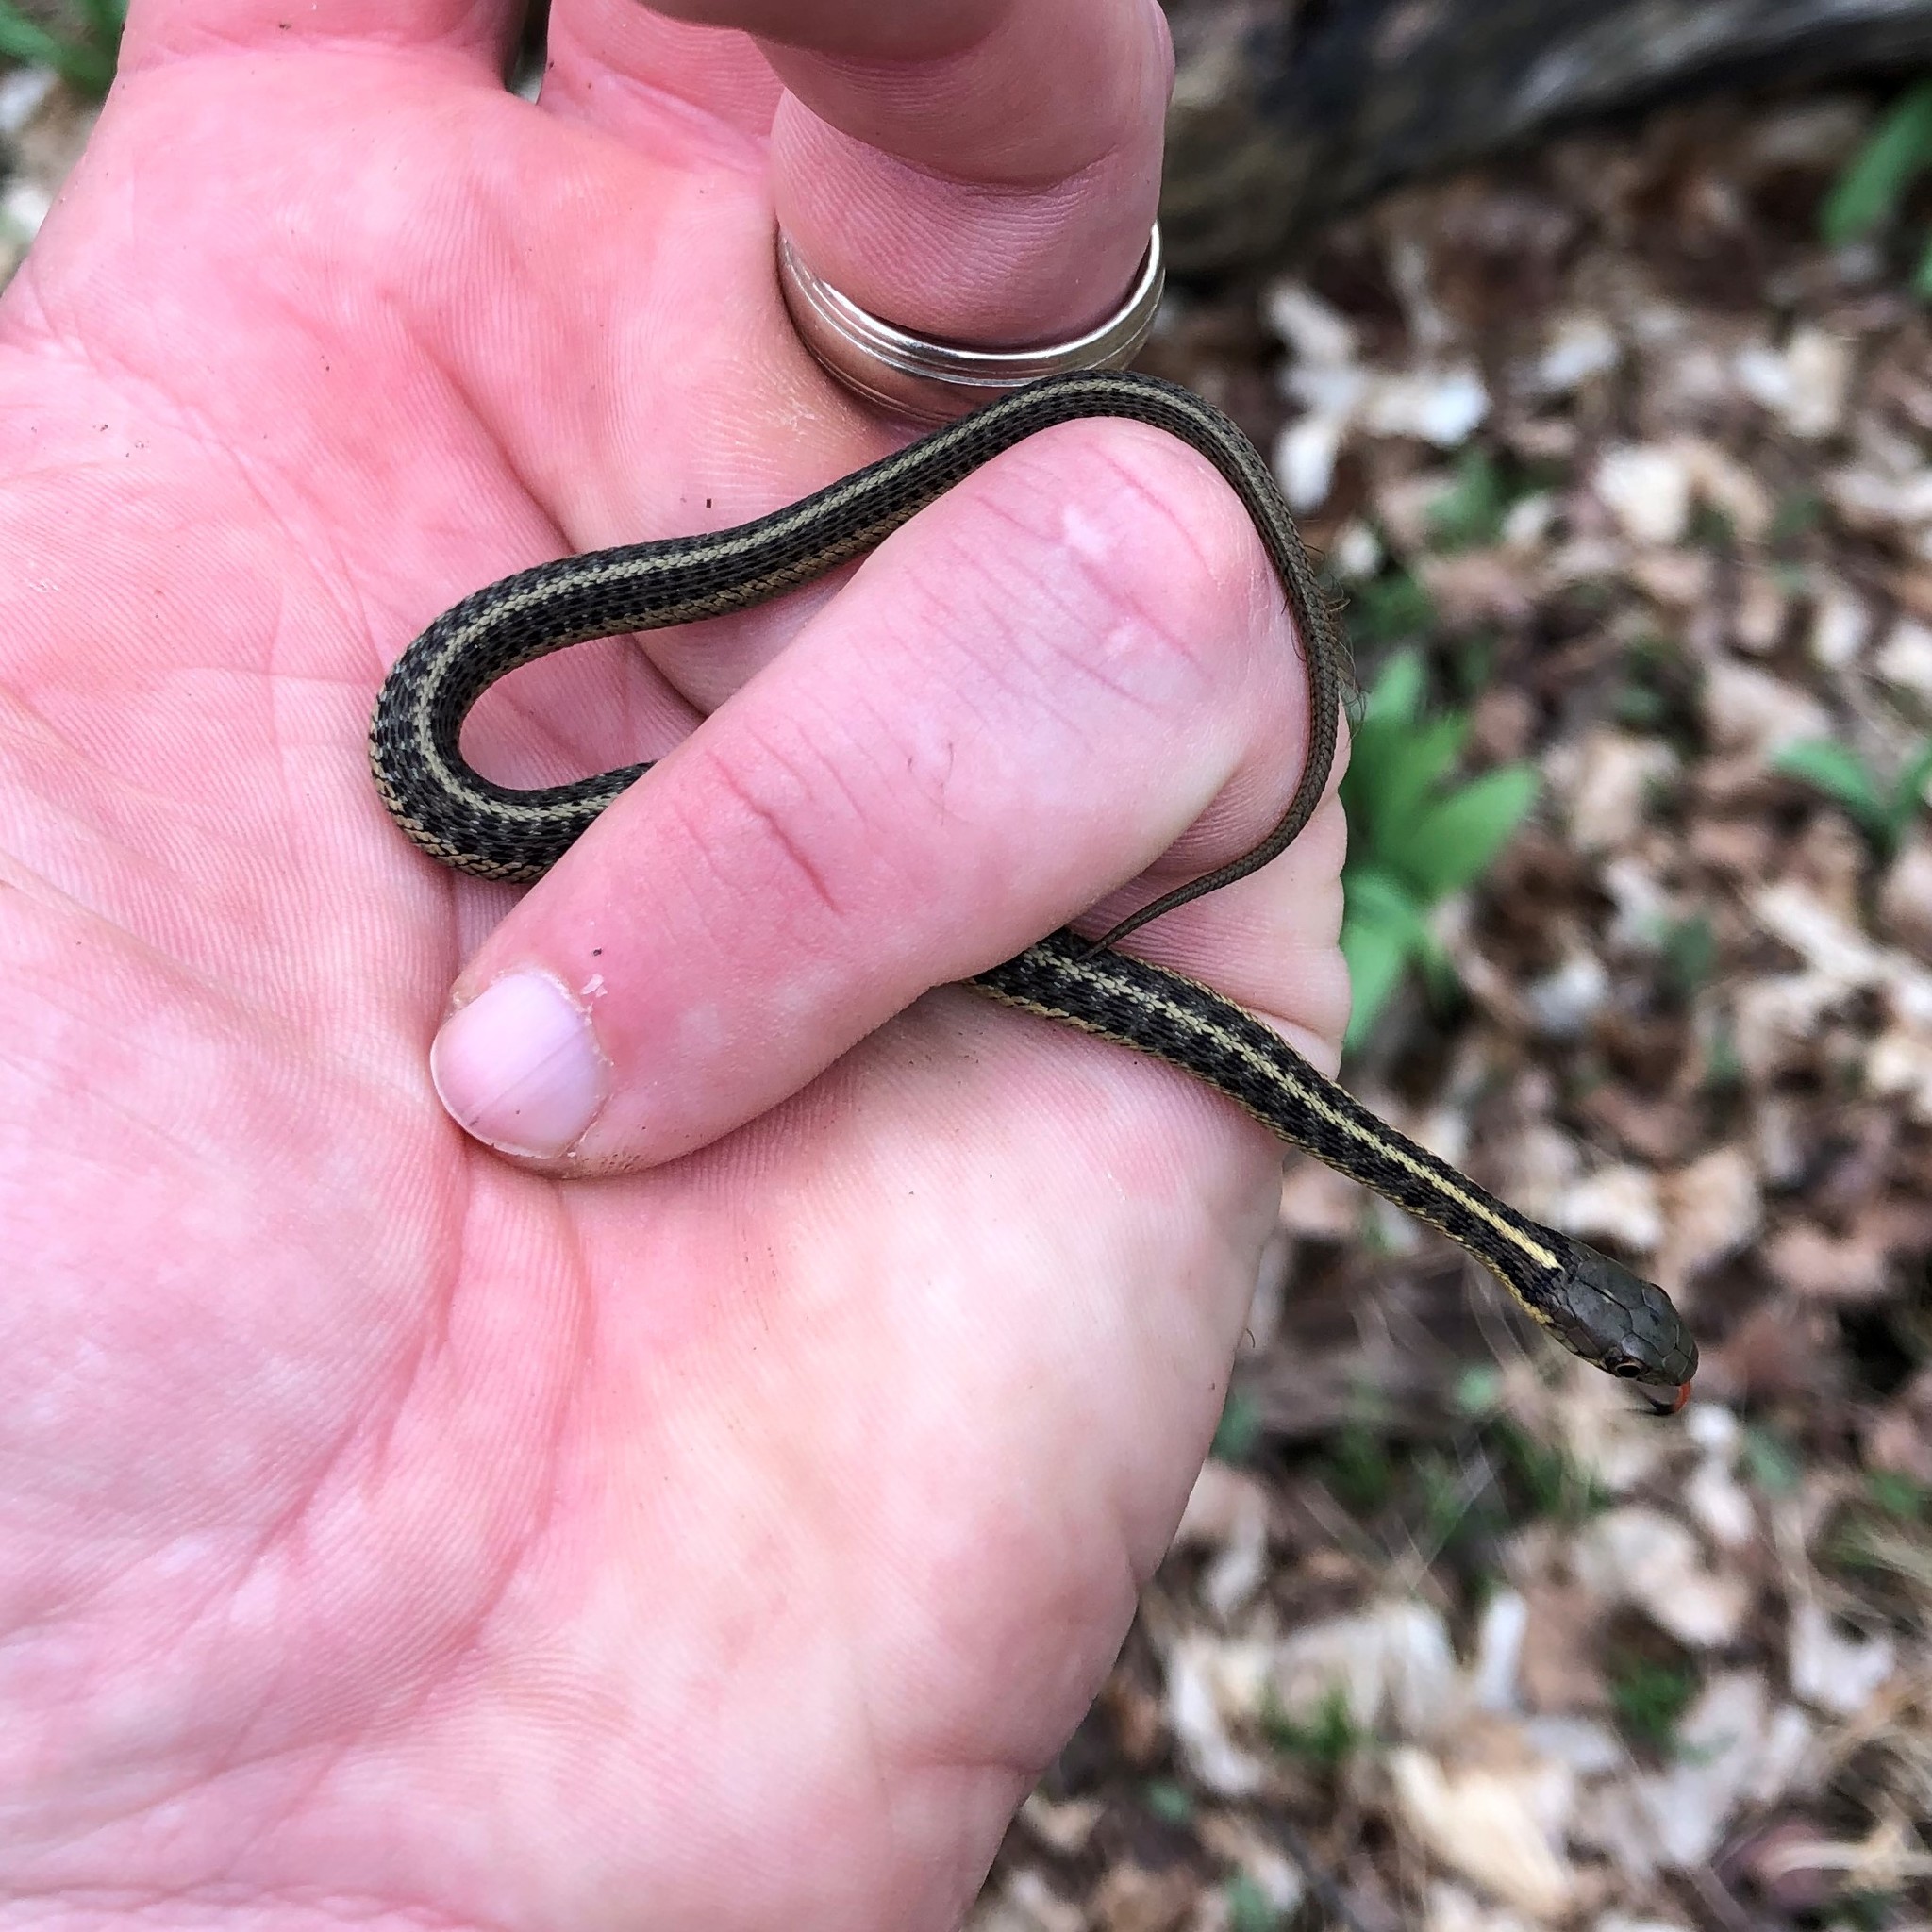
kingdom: Animalia
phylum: Chordata
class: Squamata
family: Colubridae
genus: Thamnophis
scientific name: Thamnophis sirtalis
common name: Common garter snake
